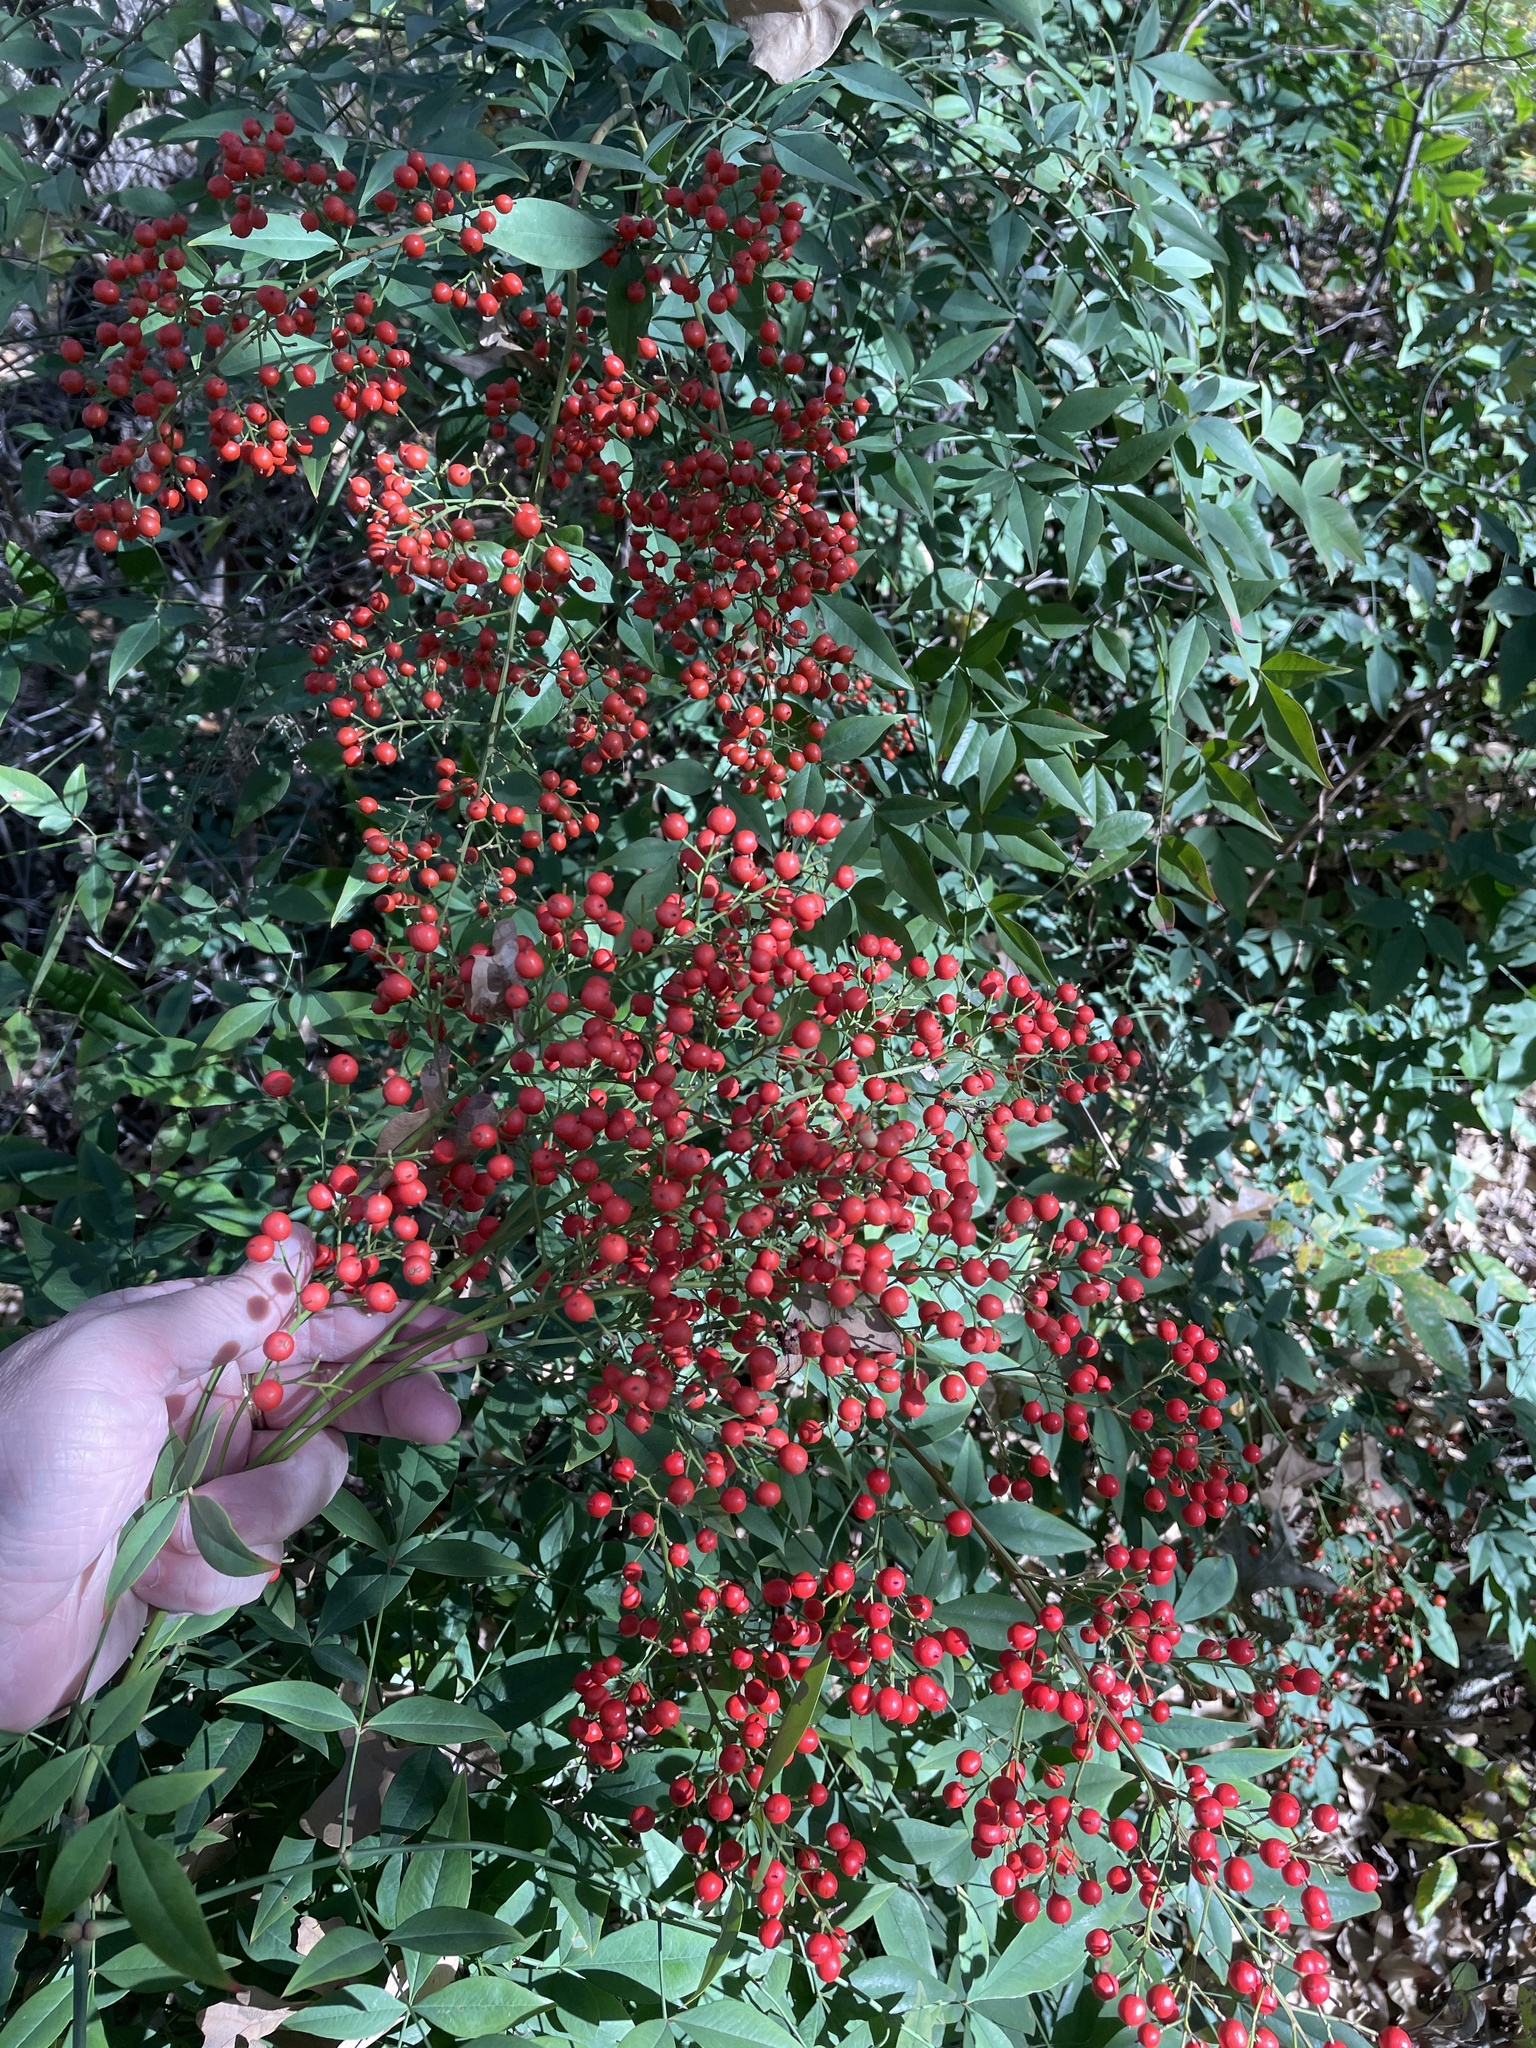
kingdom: Plantae
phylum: Tracheophyta
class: Magnoliopsida
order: Ranunculales
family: Berberidaceae
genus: Nandina
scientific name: Nandina domestica
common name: Sacred bamboo
